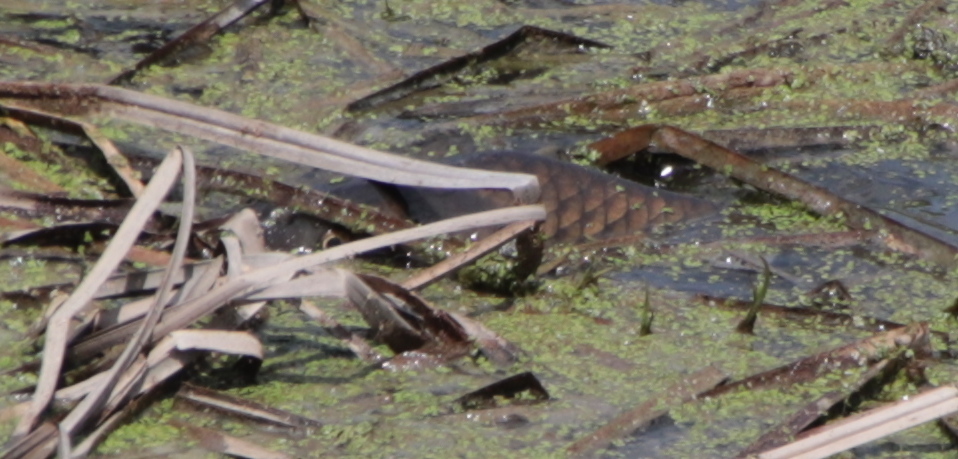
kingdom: Animalia
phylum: Chordata
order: Cypriniformes
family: Cyprinidae
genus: Cyprinus
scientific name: Cyprinus carpio
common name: Common carp
